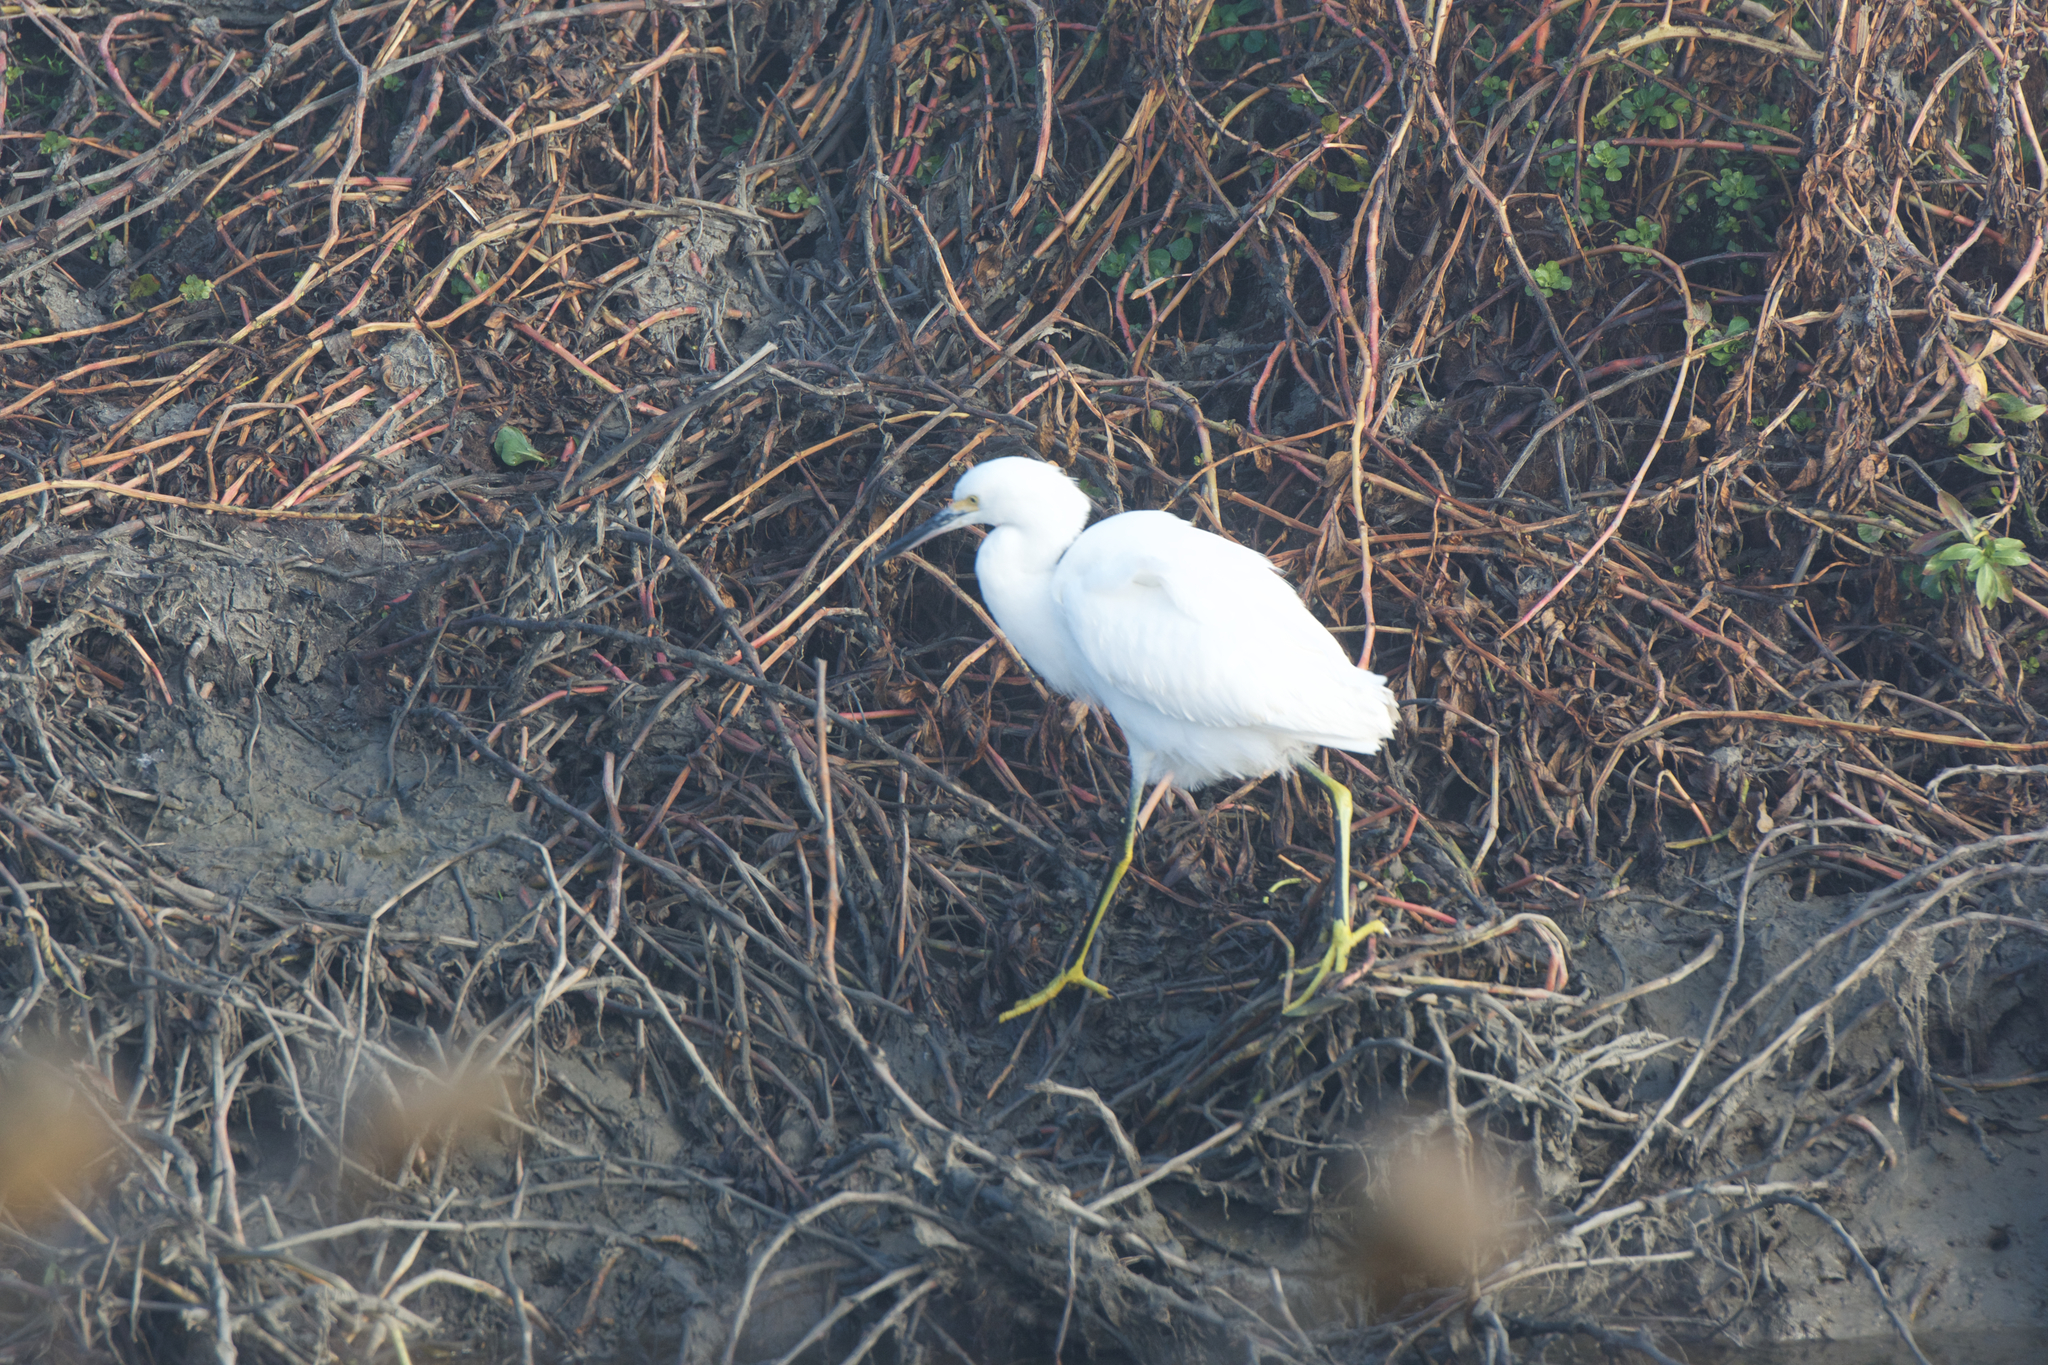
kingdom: Animalia
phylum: Chordata
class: Aves
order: Pelecaniformes
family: Ardeidae
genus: Egretta
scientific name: Egretta thula
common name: Snowy egret
